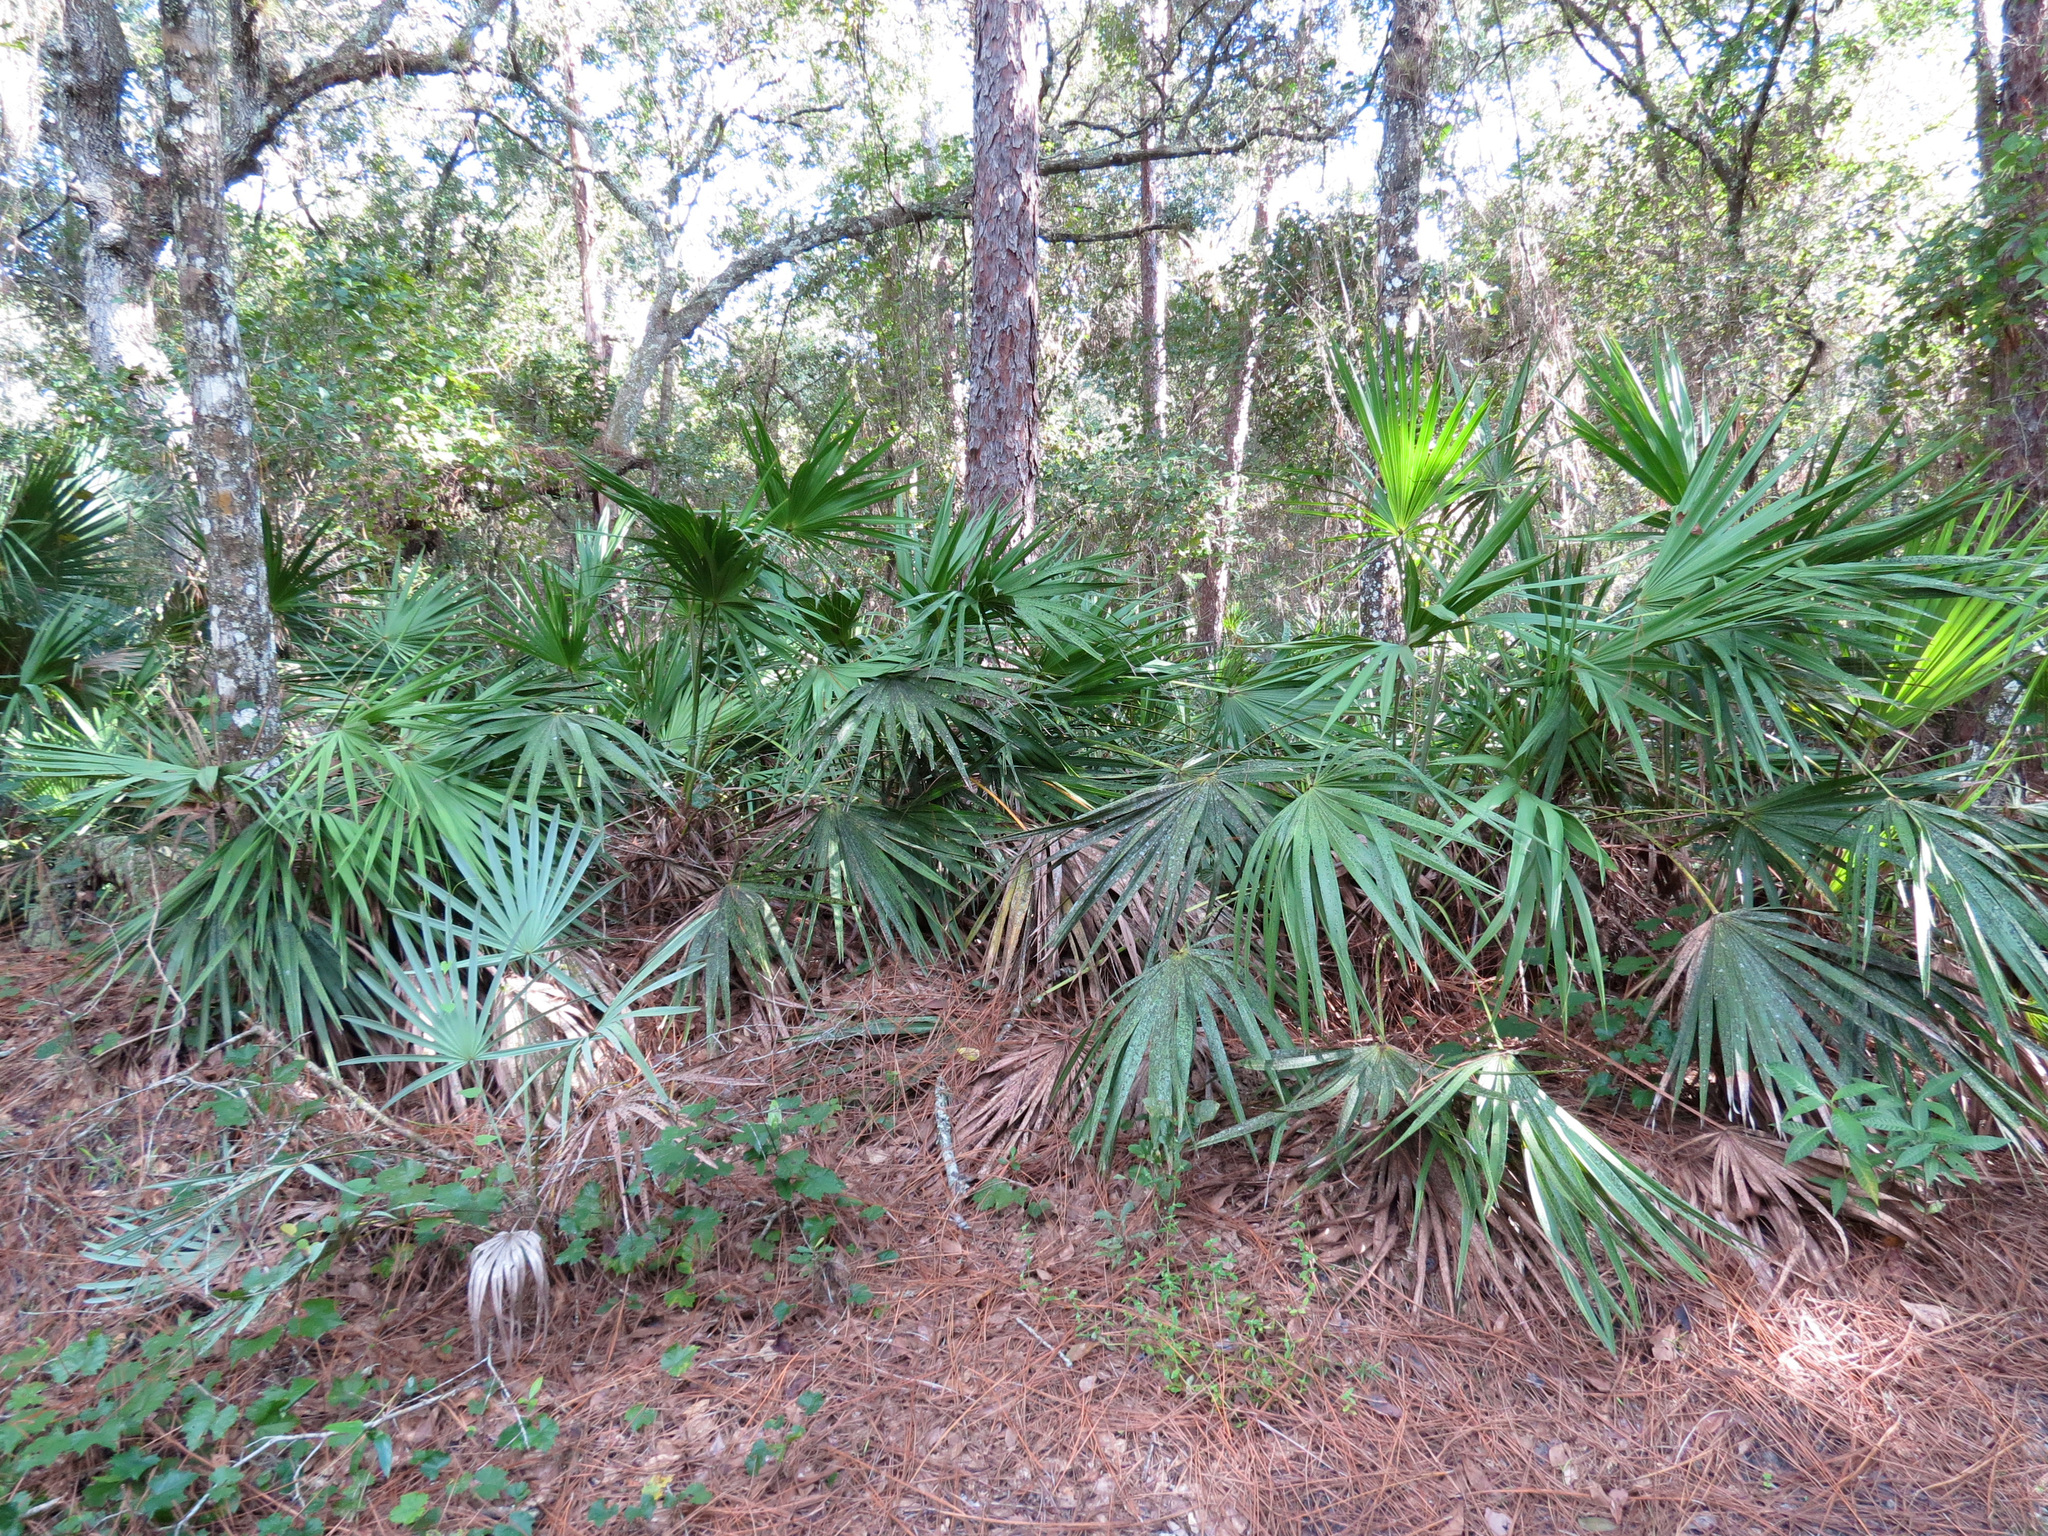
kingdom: Plantae
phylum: Tracheophyta
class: Liliopsida
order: Arecales
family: Arecaceae
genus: Serenoa
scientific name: Serenoa repens
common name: Saw-palmetto
